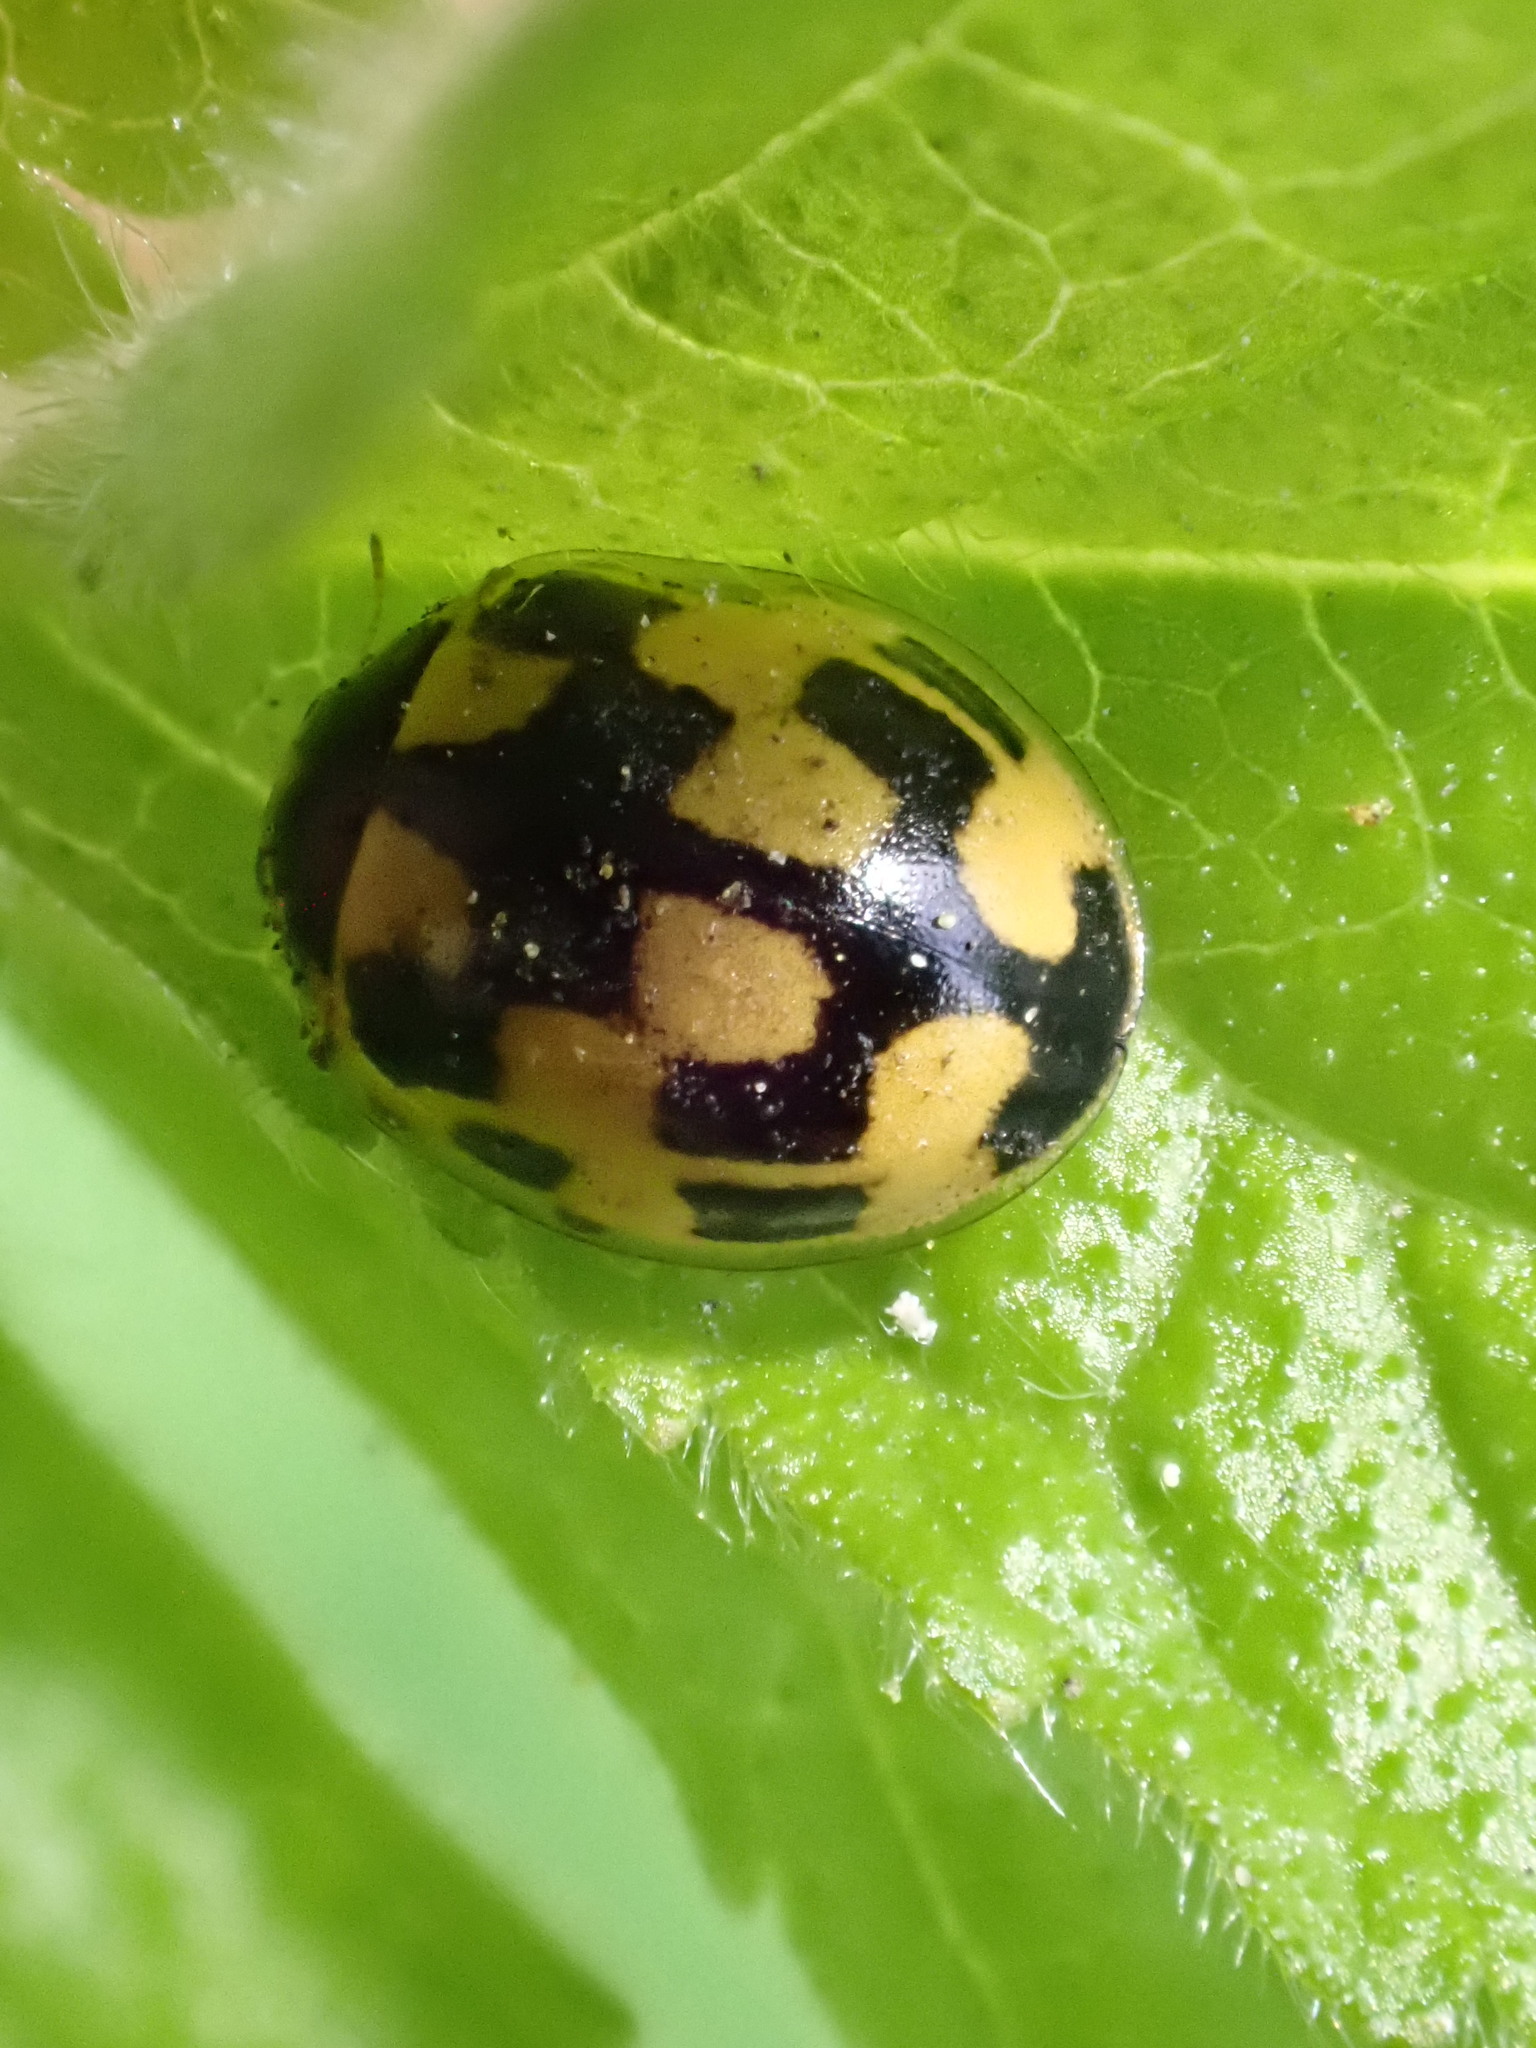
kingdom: Animalia
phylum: Arthropoda
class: Insecta
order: Coleoptera
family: Coccinellidae
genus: Propylaea
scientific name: Propylaea quatuordecimpunctata
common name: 14-spotted ladybird beetle
